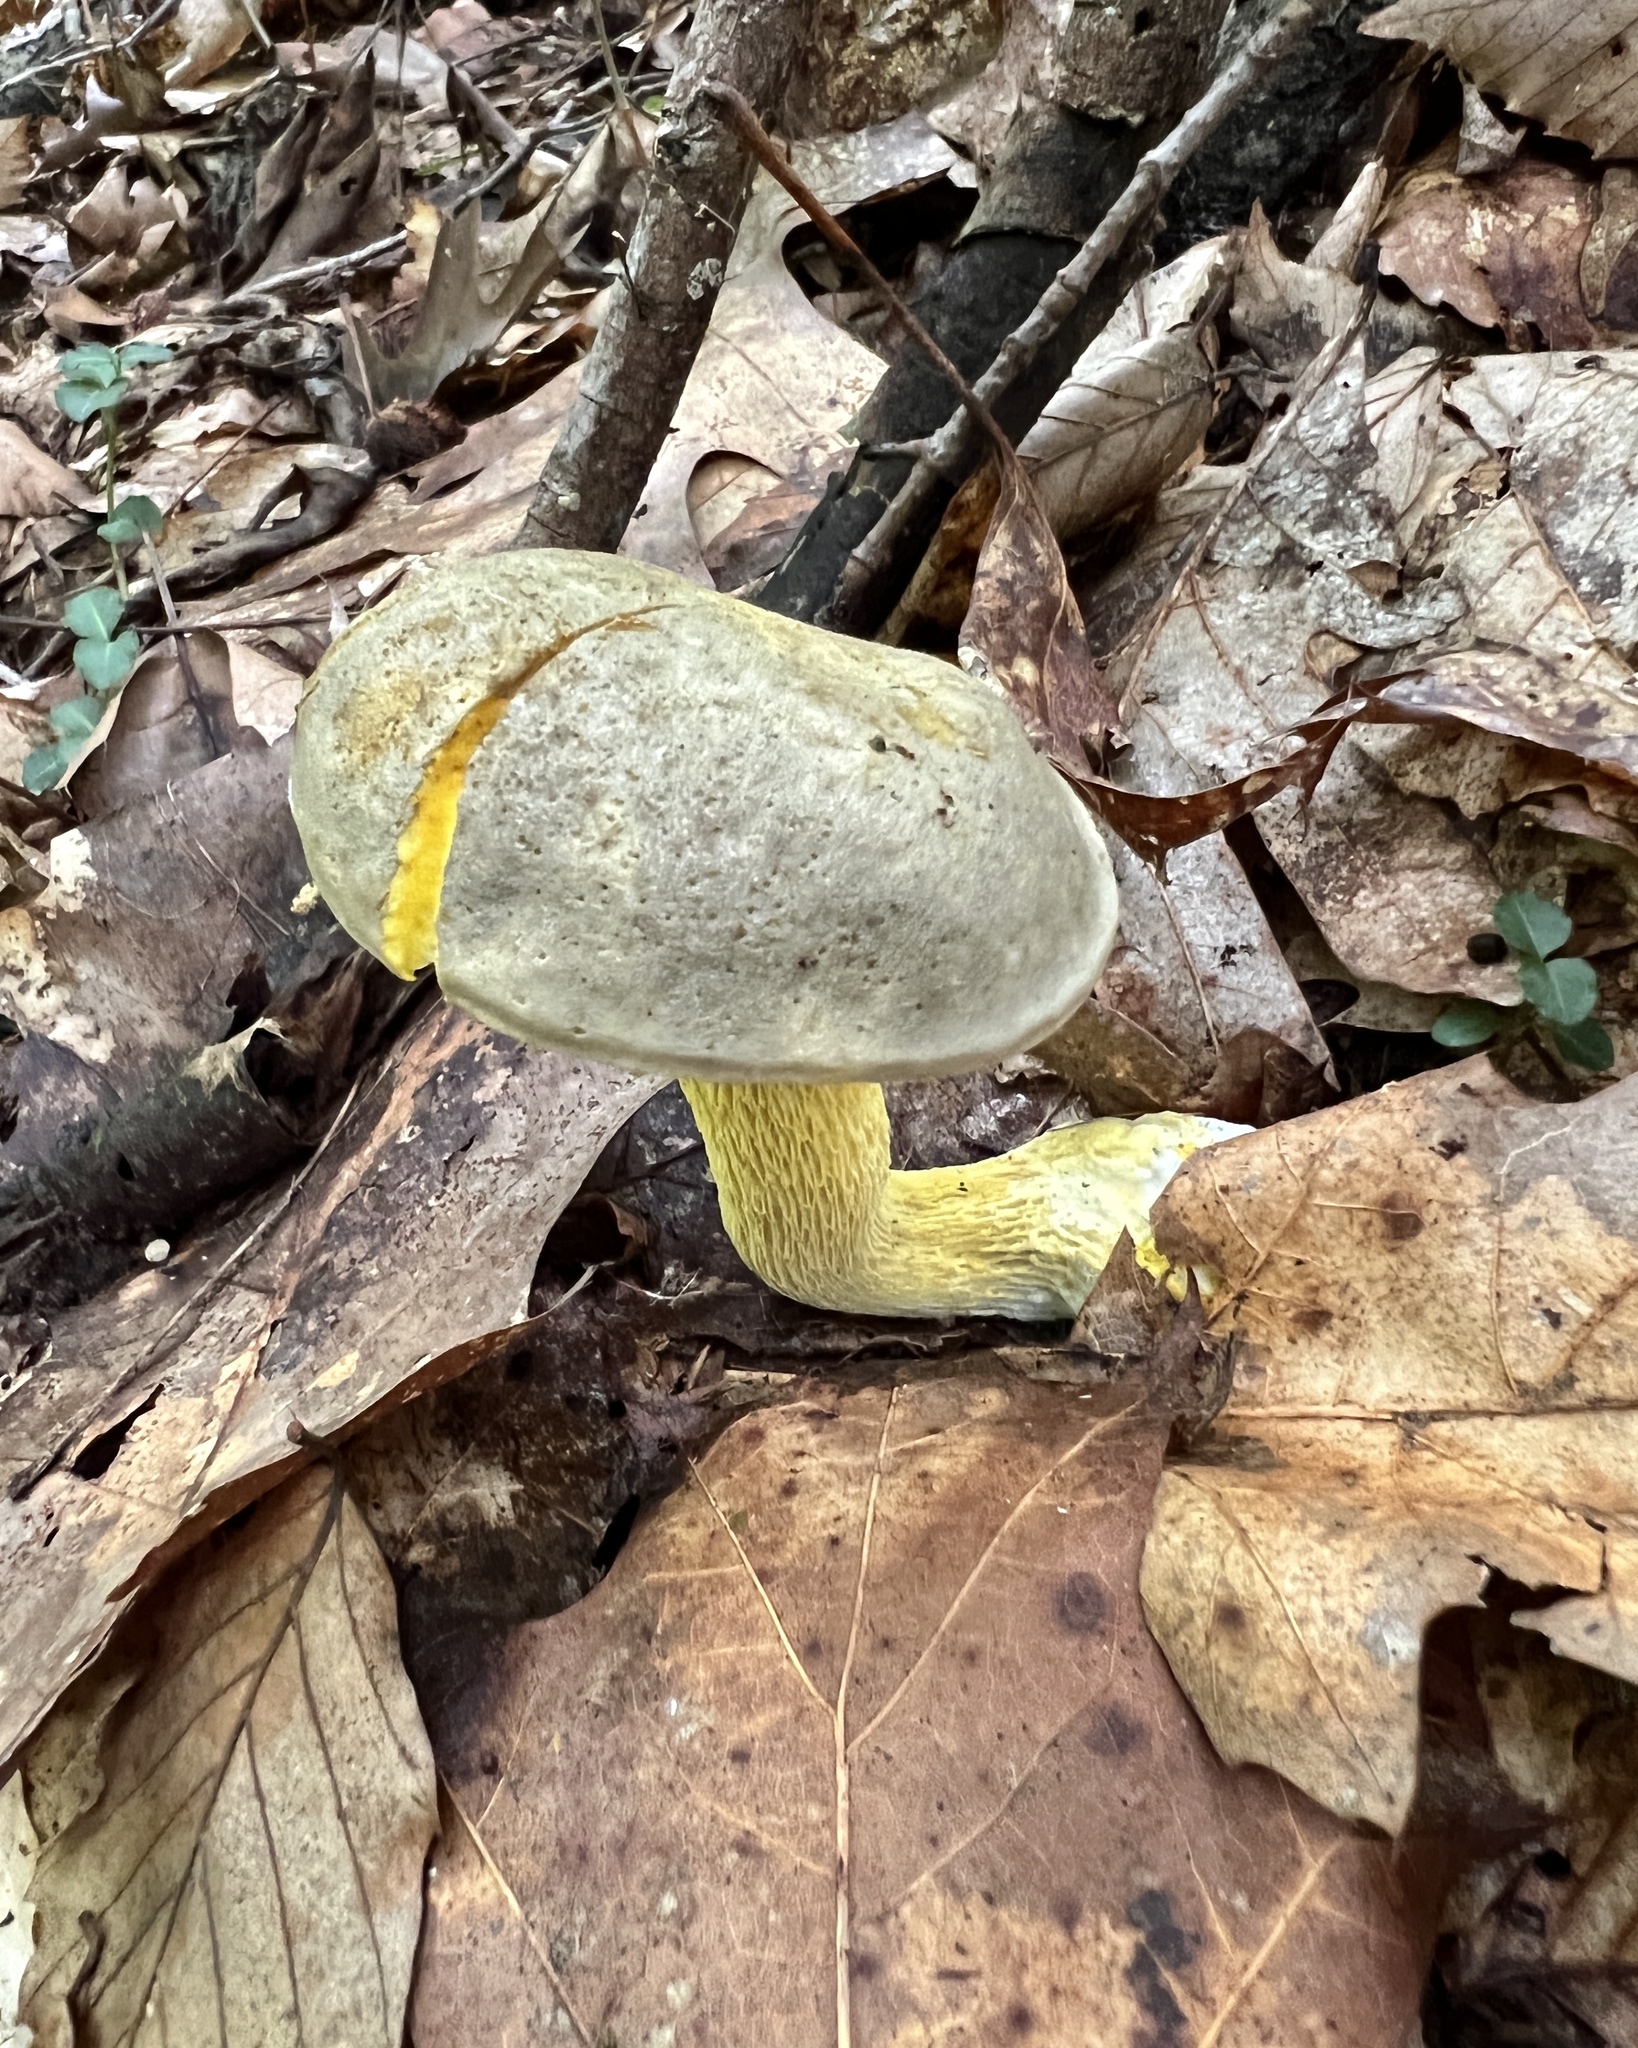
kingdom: Fungi
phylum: Basidiomycota
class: Agaricomycetes
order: Boletales
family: Boletaceae
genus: Retiboletus
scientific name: Retiboletus ornatipes
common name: Ornate-stalked bolete
